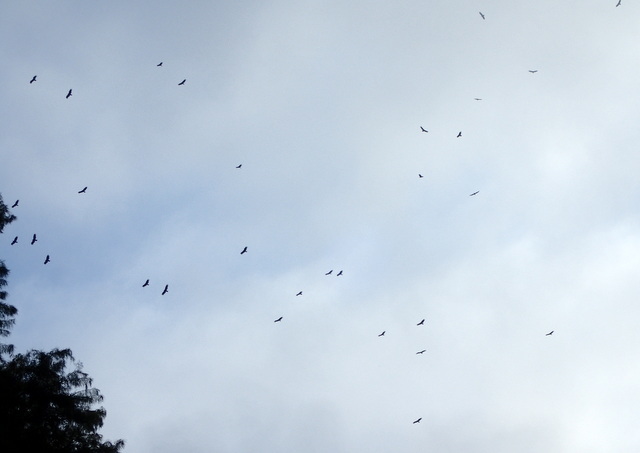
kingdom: Animalia
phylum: Chordata
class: Aves
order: Accipitriformes
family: Cathartidae
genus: Cathartes
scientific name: Cathartes aura
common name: Turkey vulture
